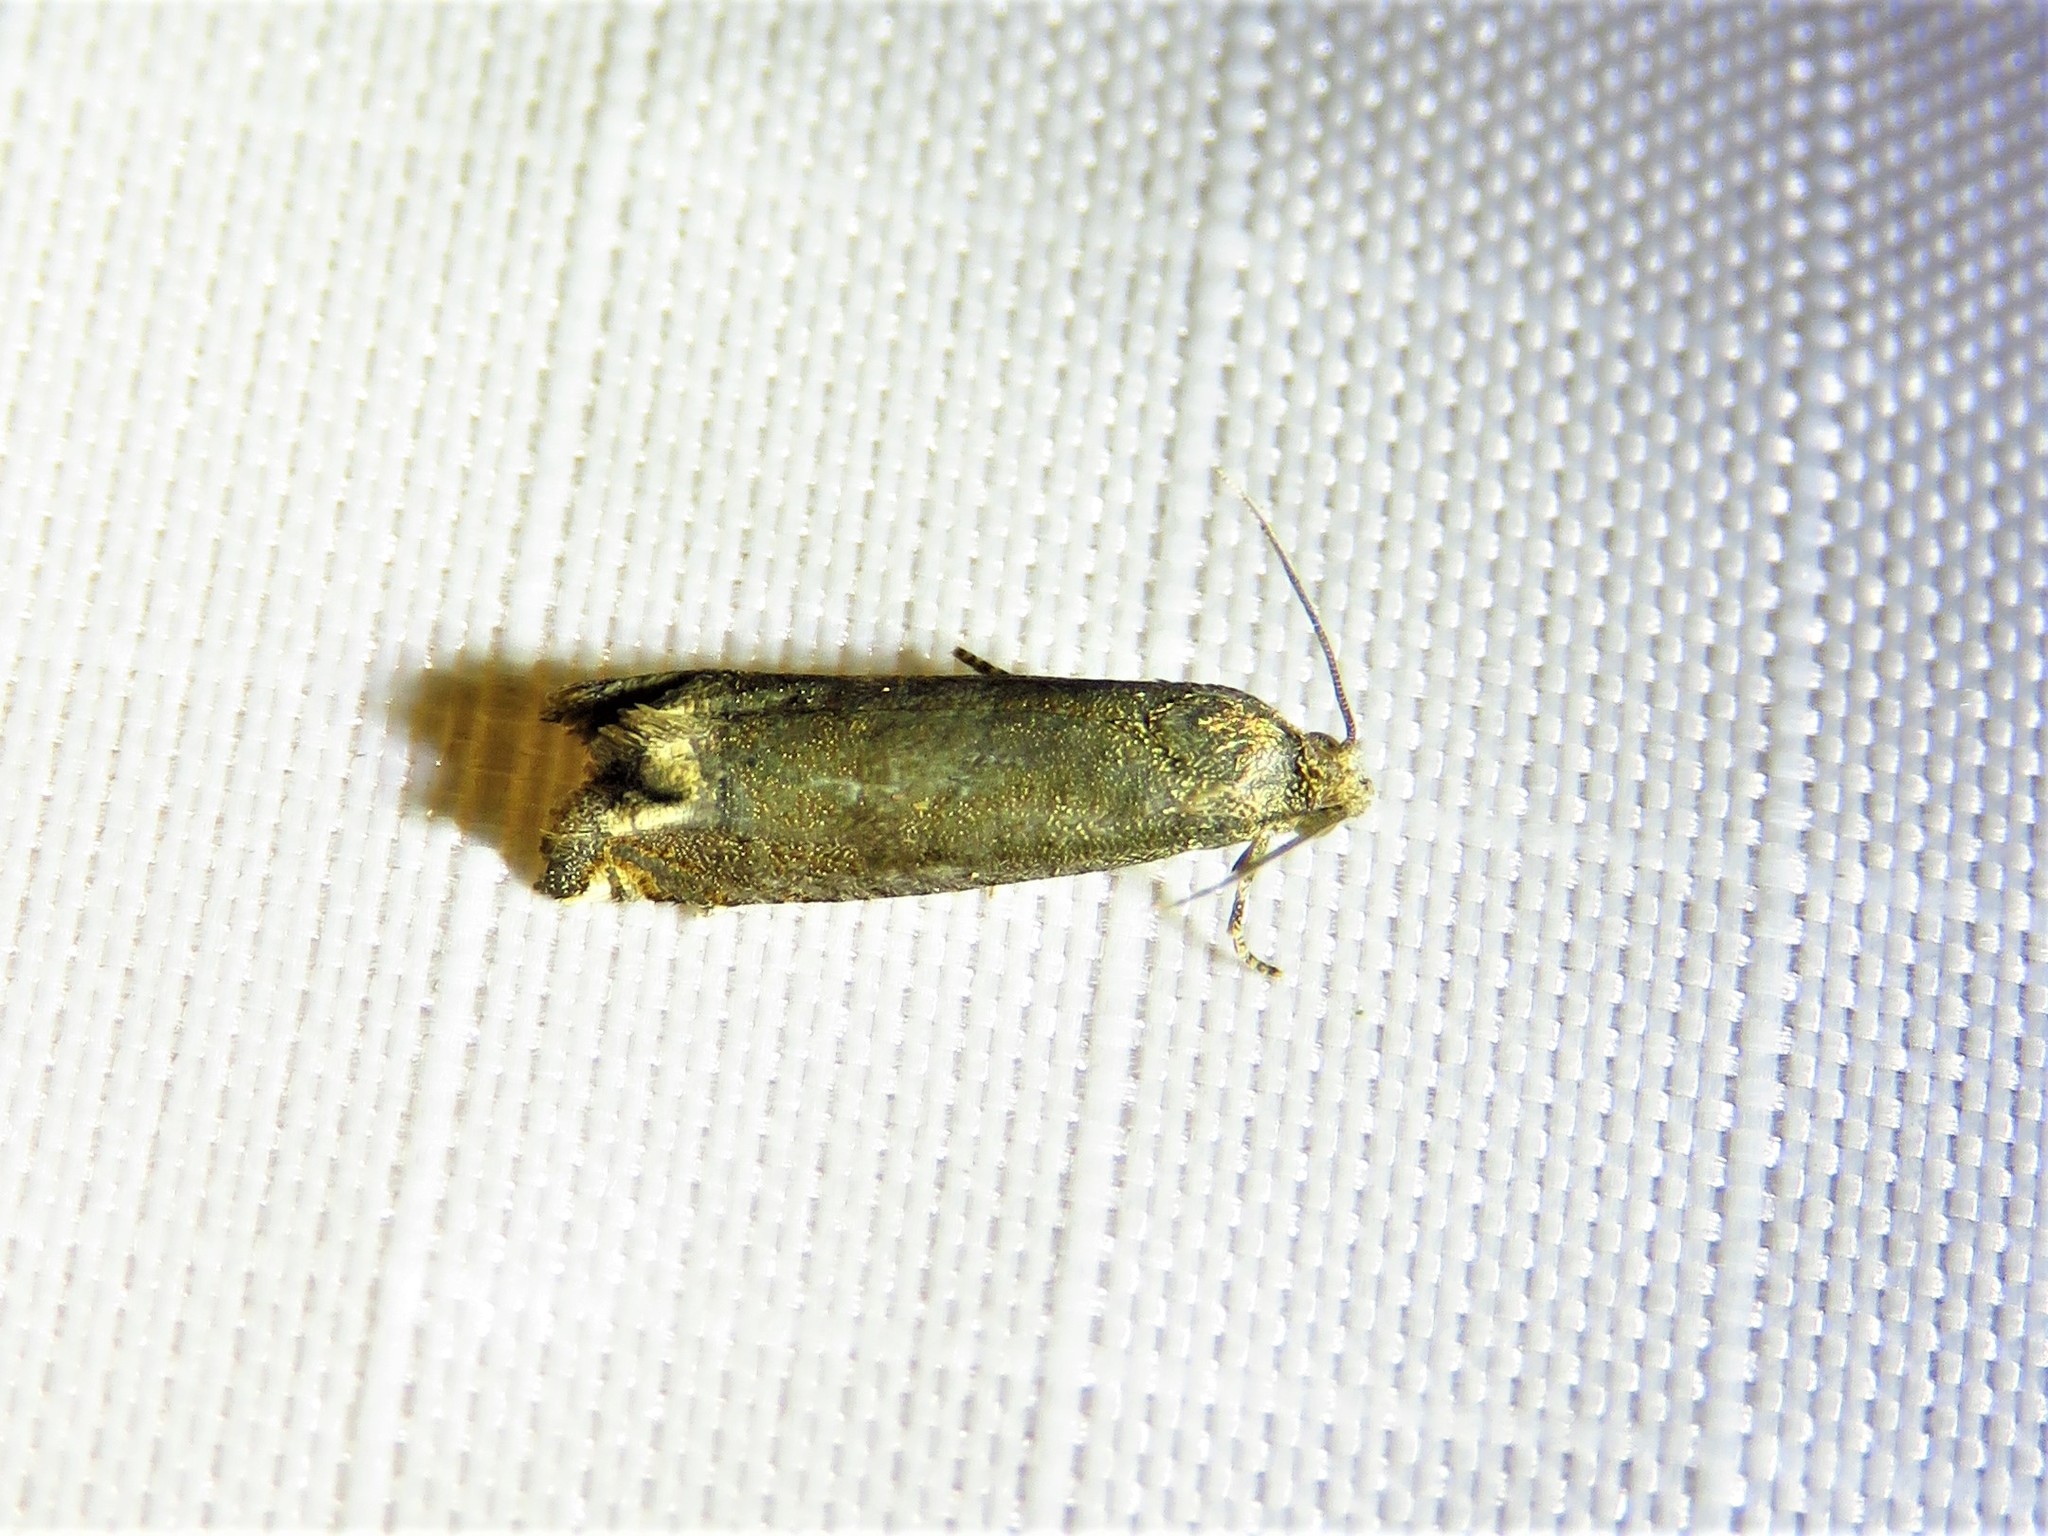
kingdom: Animalia
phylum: Arthropoda
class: Insecta
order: Lepidoptera
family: Tortricidae
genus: Epiblema
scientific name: Epiblema strenuana
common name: Ragweed borer moth
